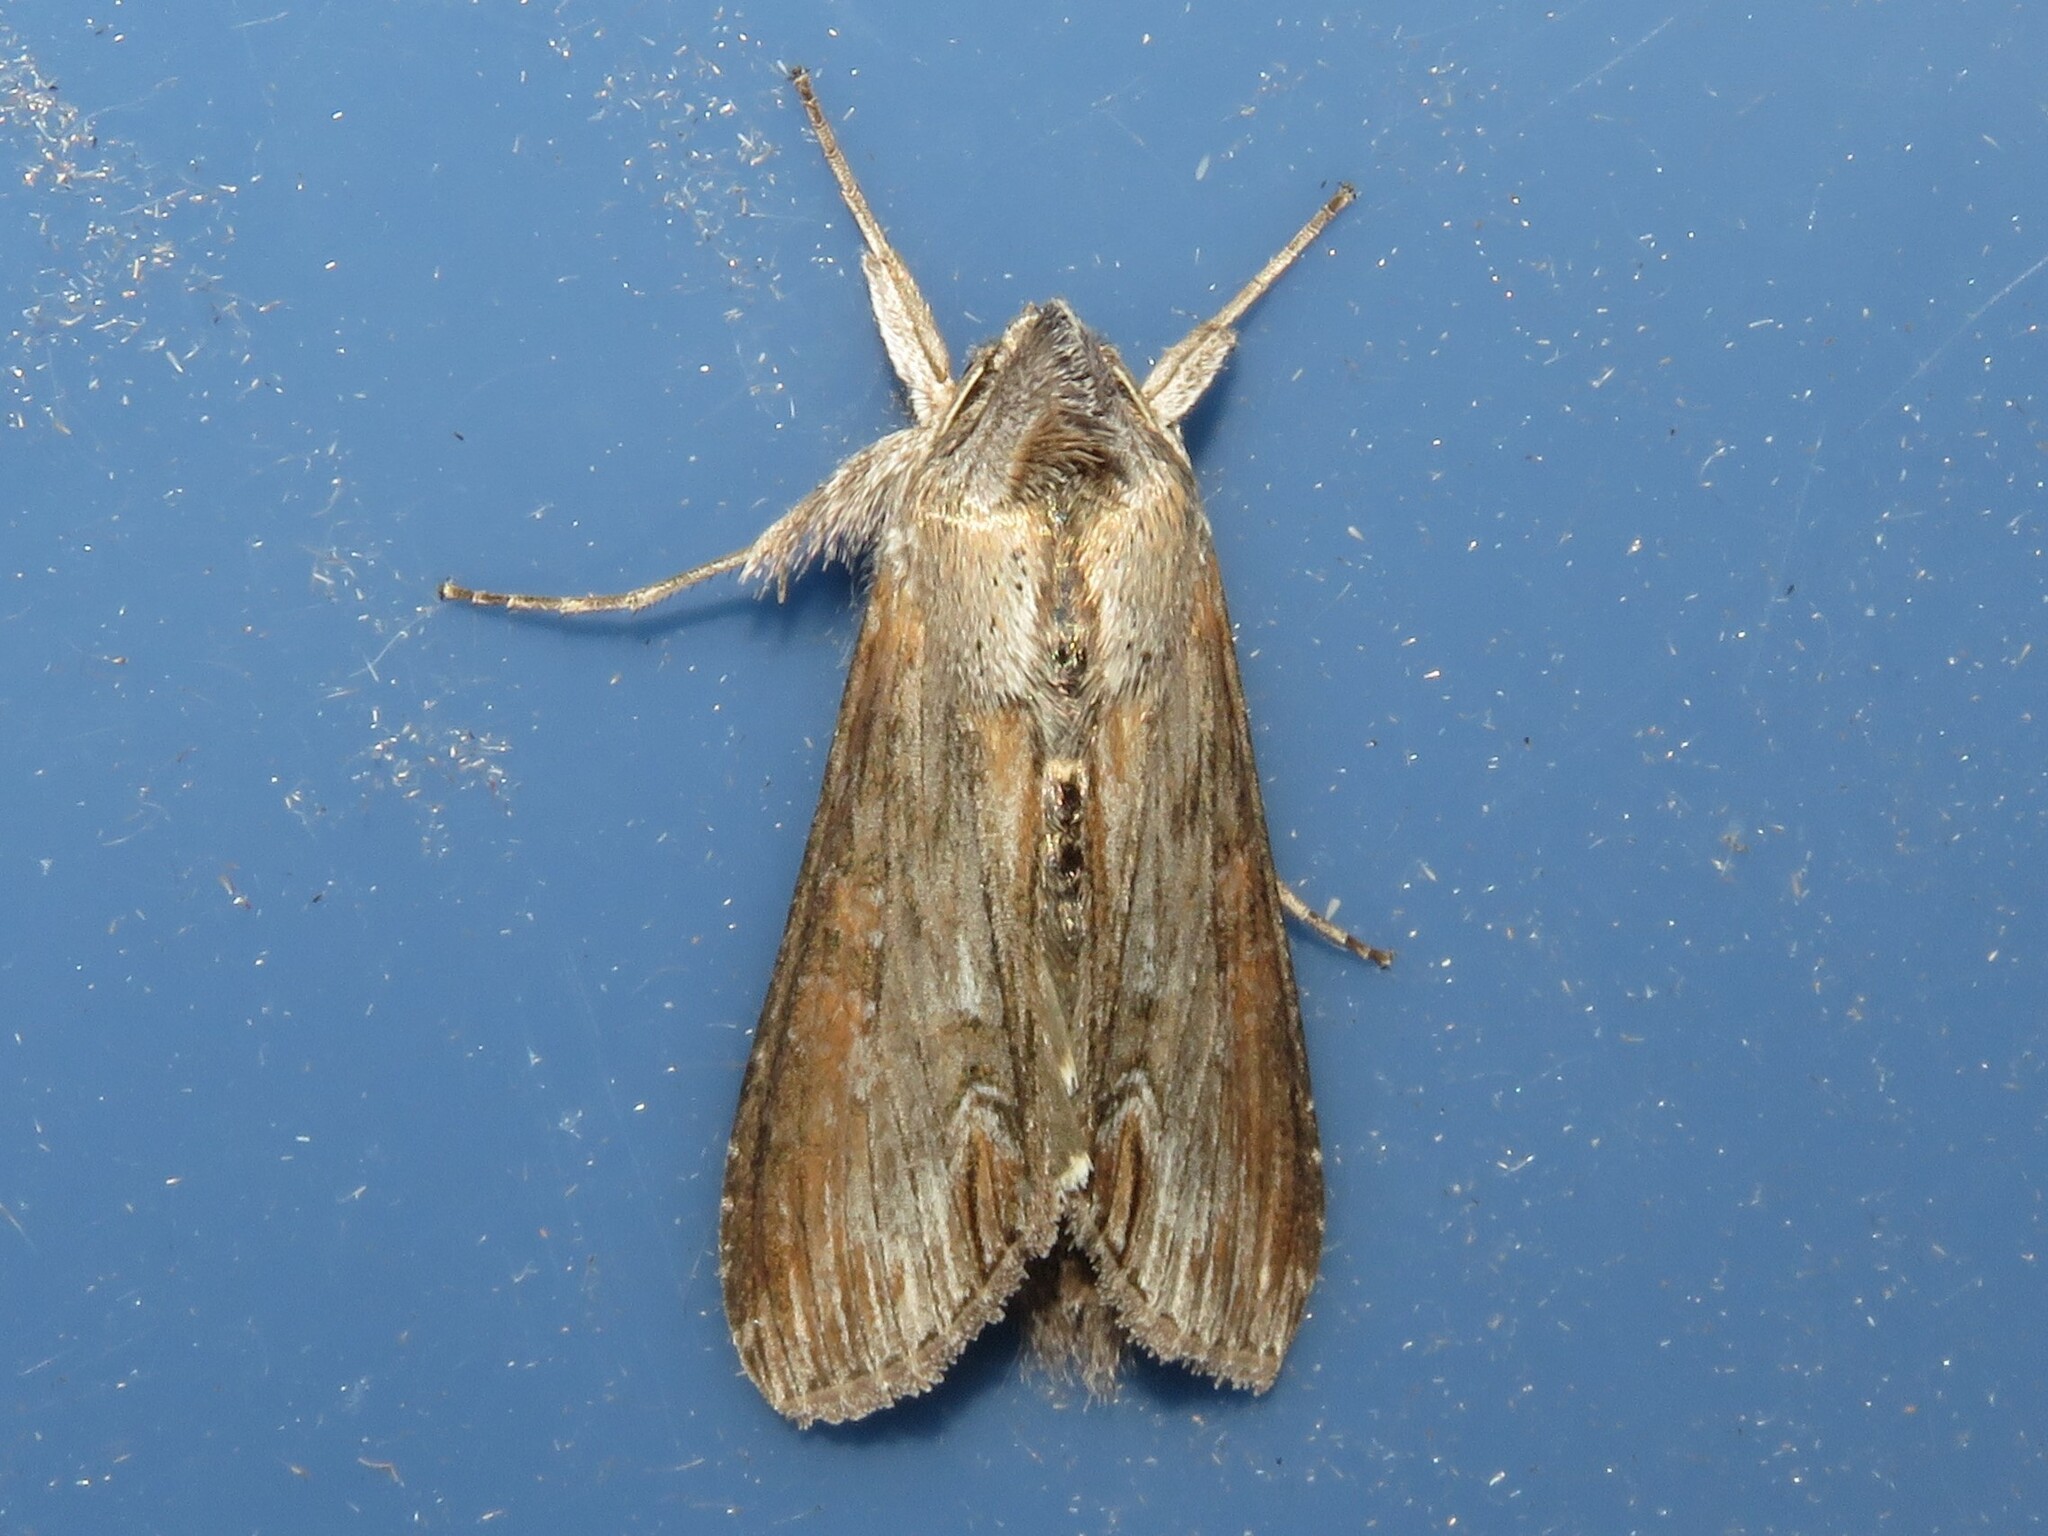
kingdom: Animalia
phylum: Arthropoda
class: Insecta
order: Lepidoptera
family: Noctuidae
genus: Cucullia
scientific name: Cucullia asteroides
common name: Asteroid moth
